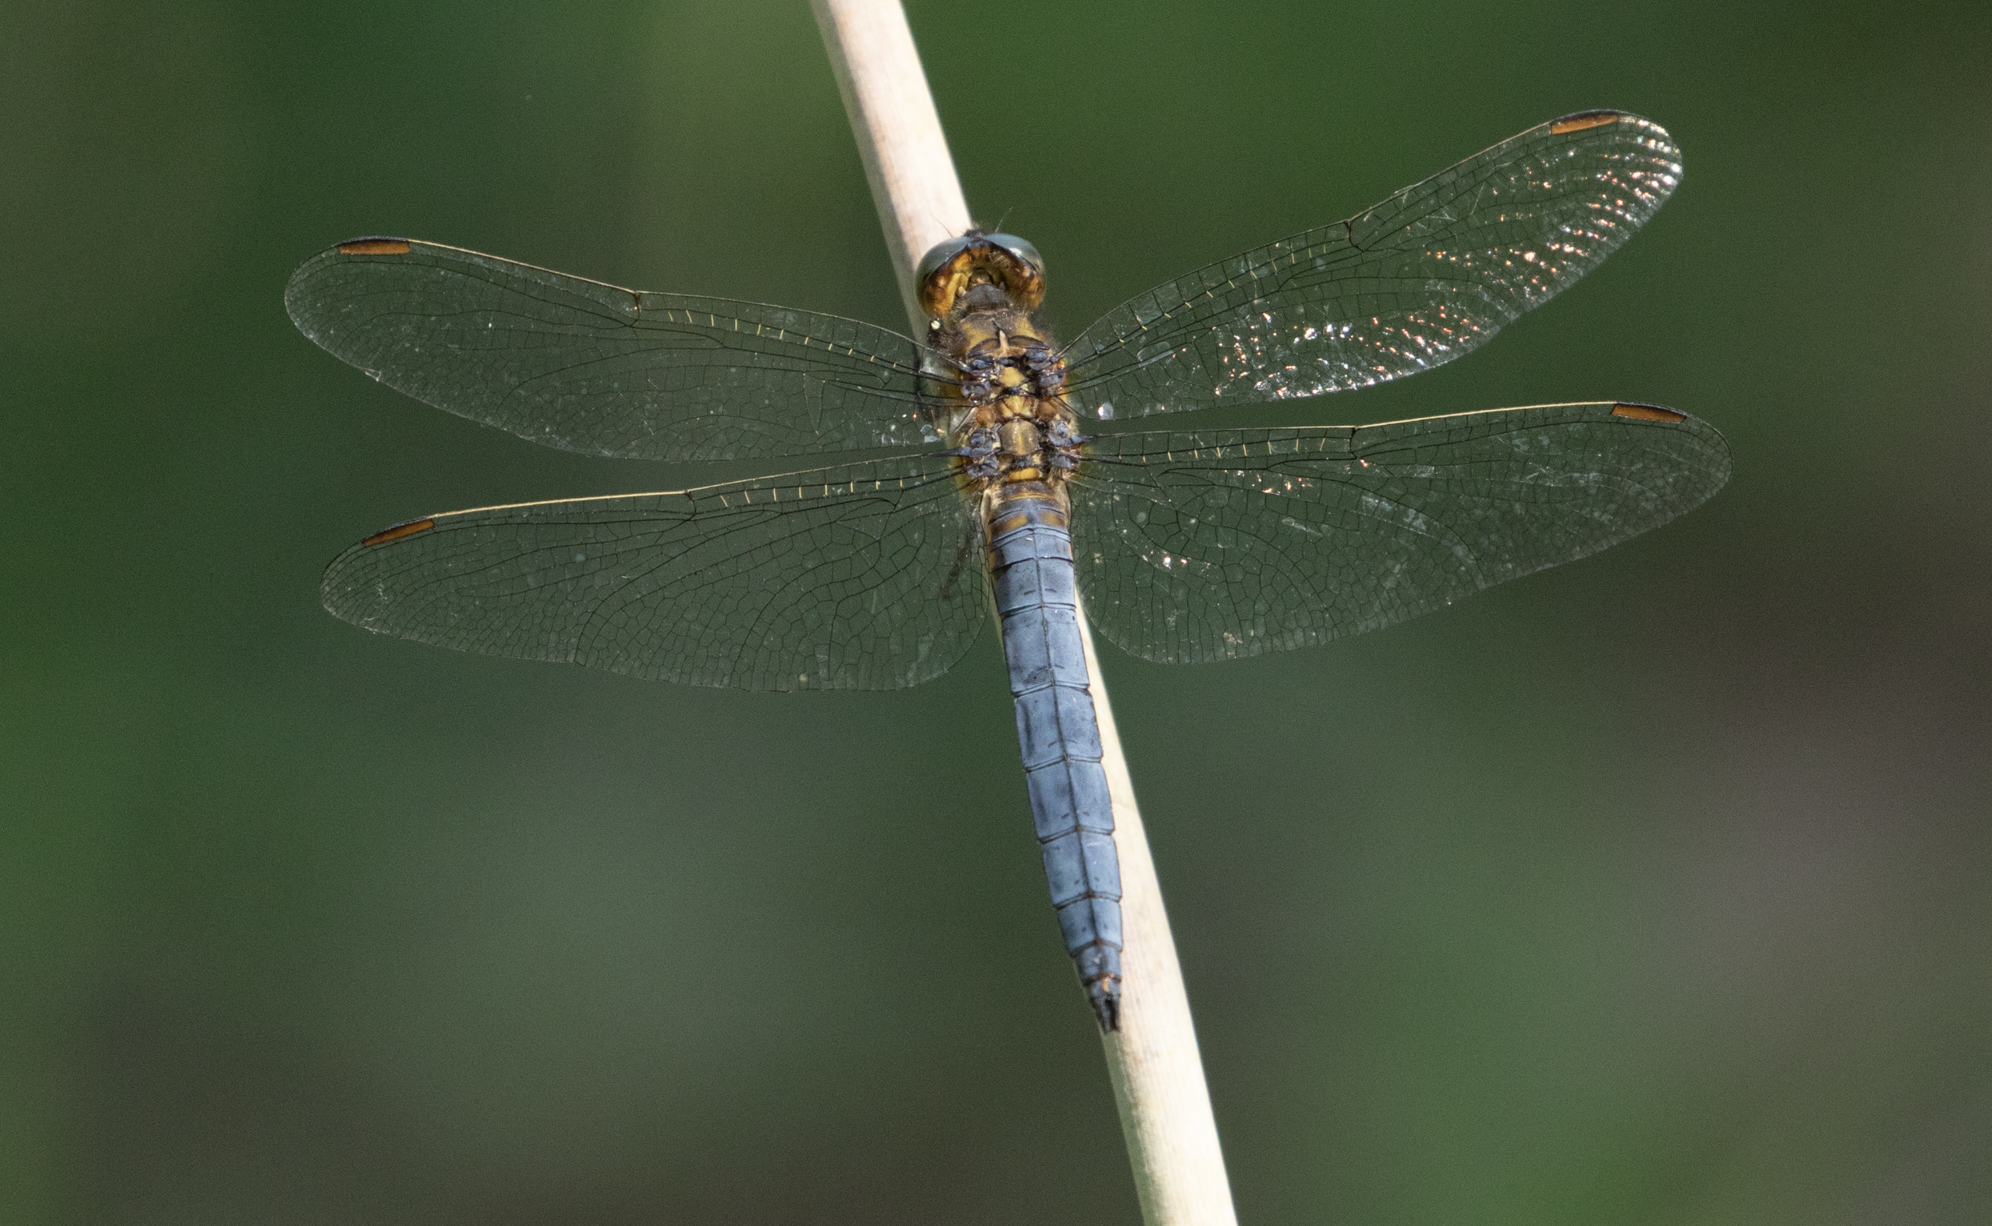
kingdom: Animalia
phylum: Arthropoda
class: Insecta
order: Odonata
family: Libellulidae
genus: Orthetrum
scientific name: Orthetrum coerulescens
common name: Keeled skimmer
